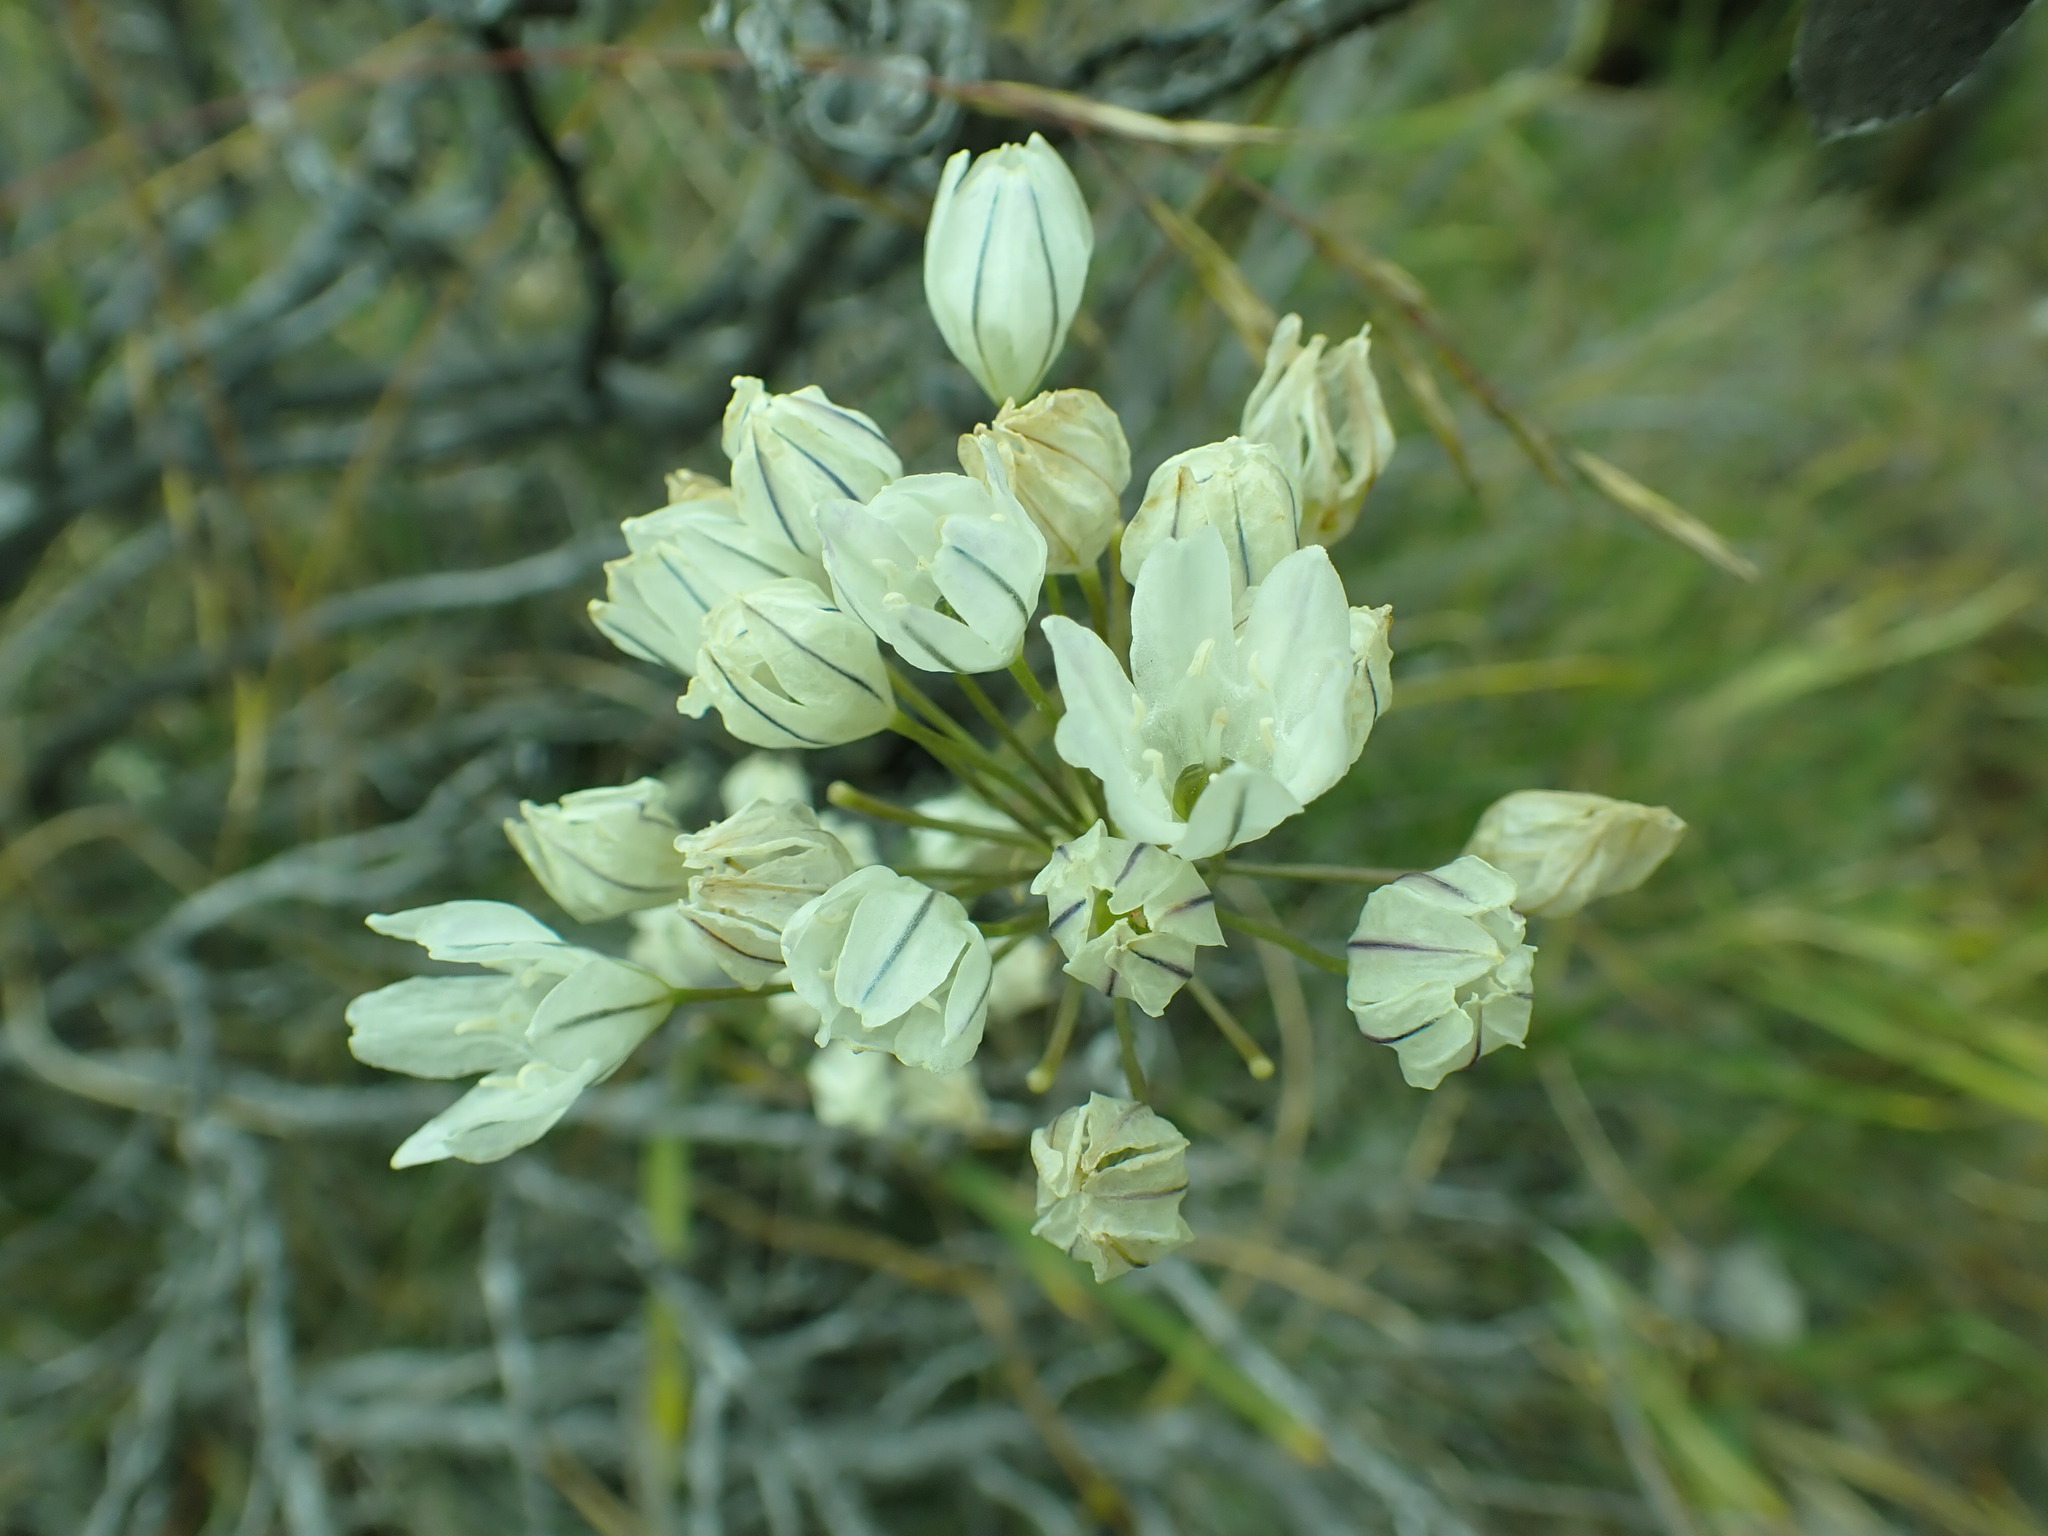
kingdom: Plantae
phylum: Tracheophyta
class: Liliopsida
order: Asparagales
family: Asparagaceae
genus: Triteleia
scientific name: Triteleia hyacinthina
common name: White brodiaea
